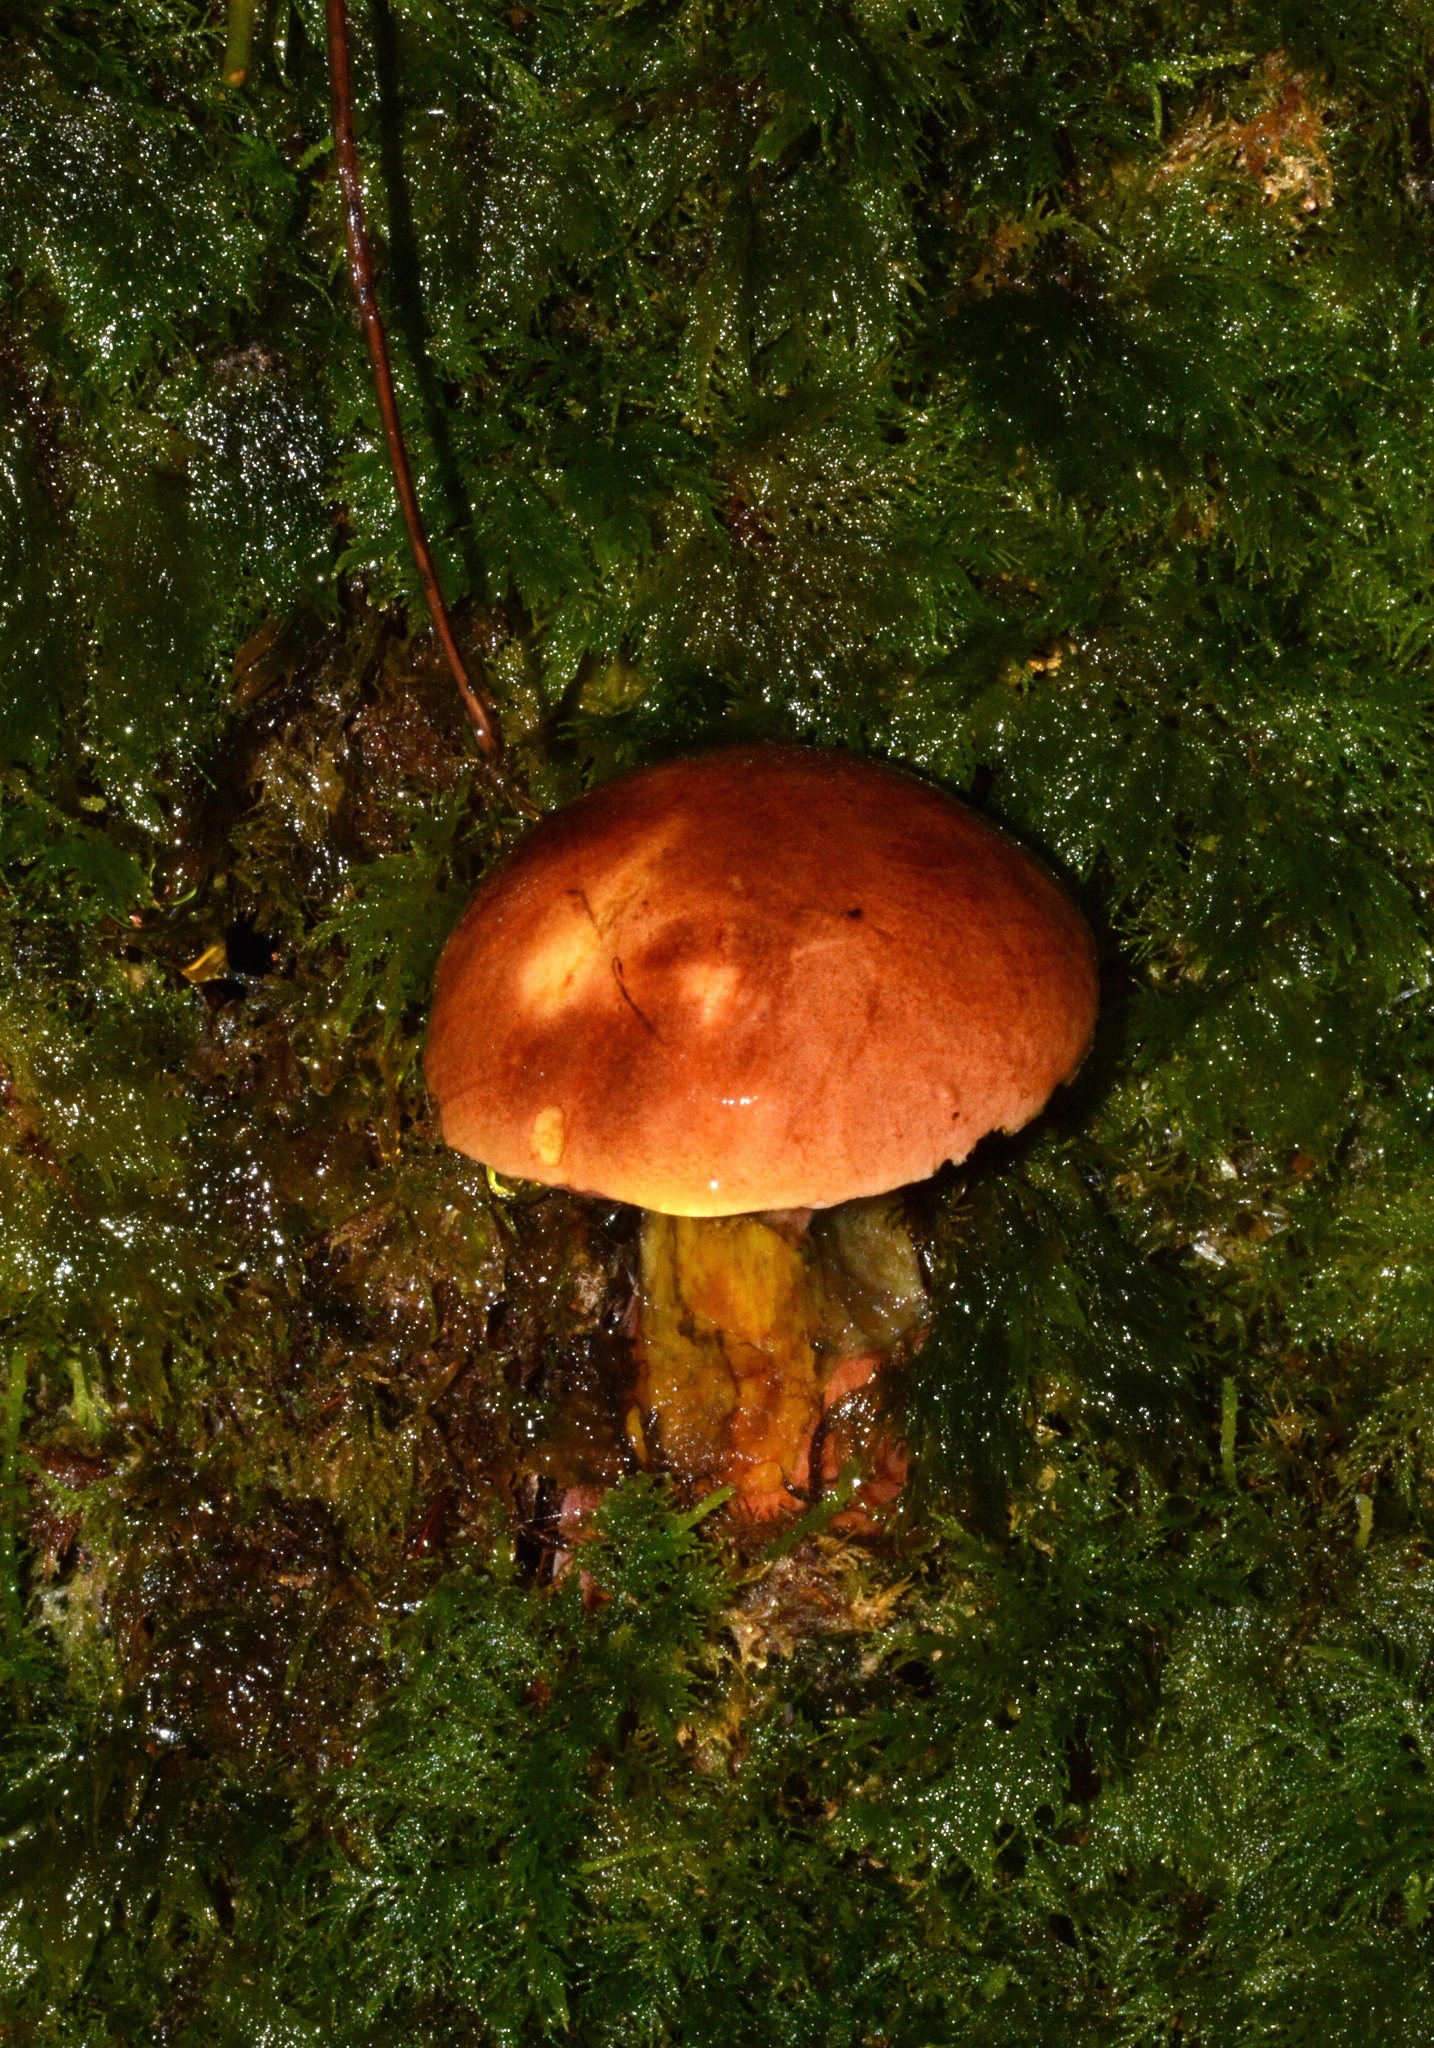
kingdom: Fungi
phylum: Basidiomycota
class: Agaricomycetes
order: Boletales
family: Boletaceae
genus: Neoboletus
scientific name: Neoboletus luridiformis
